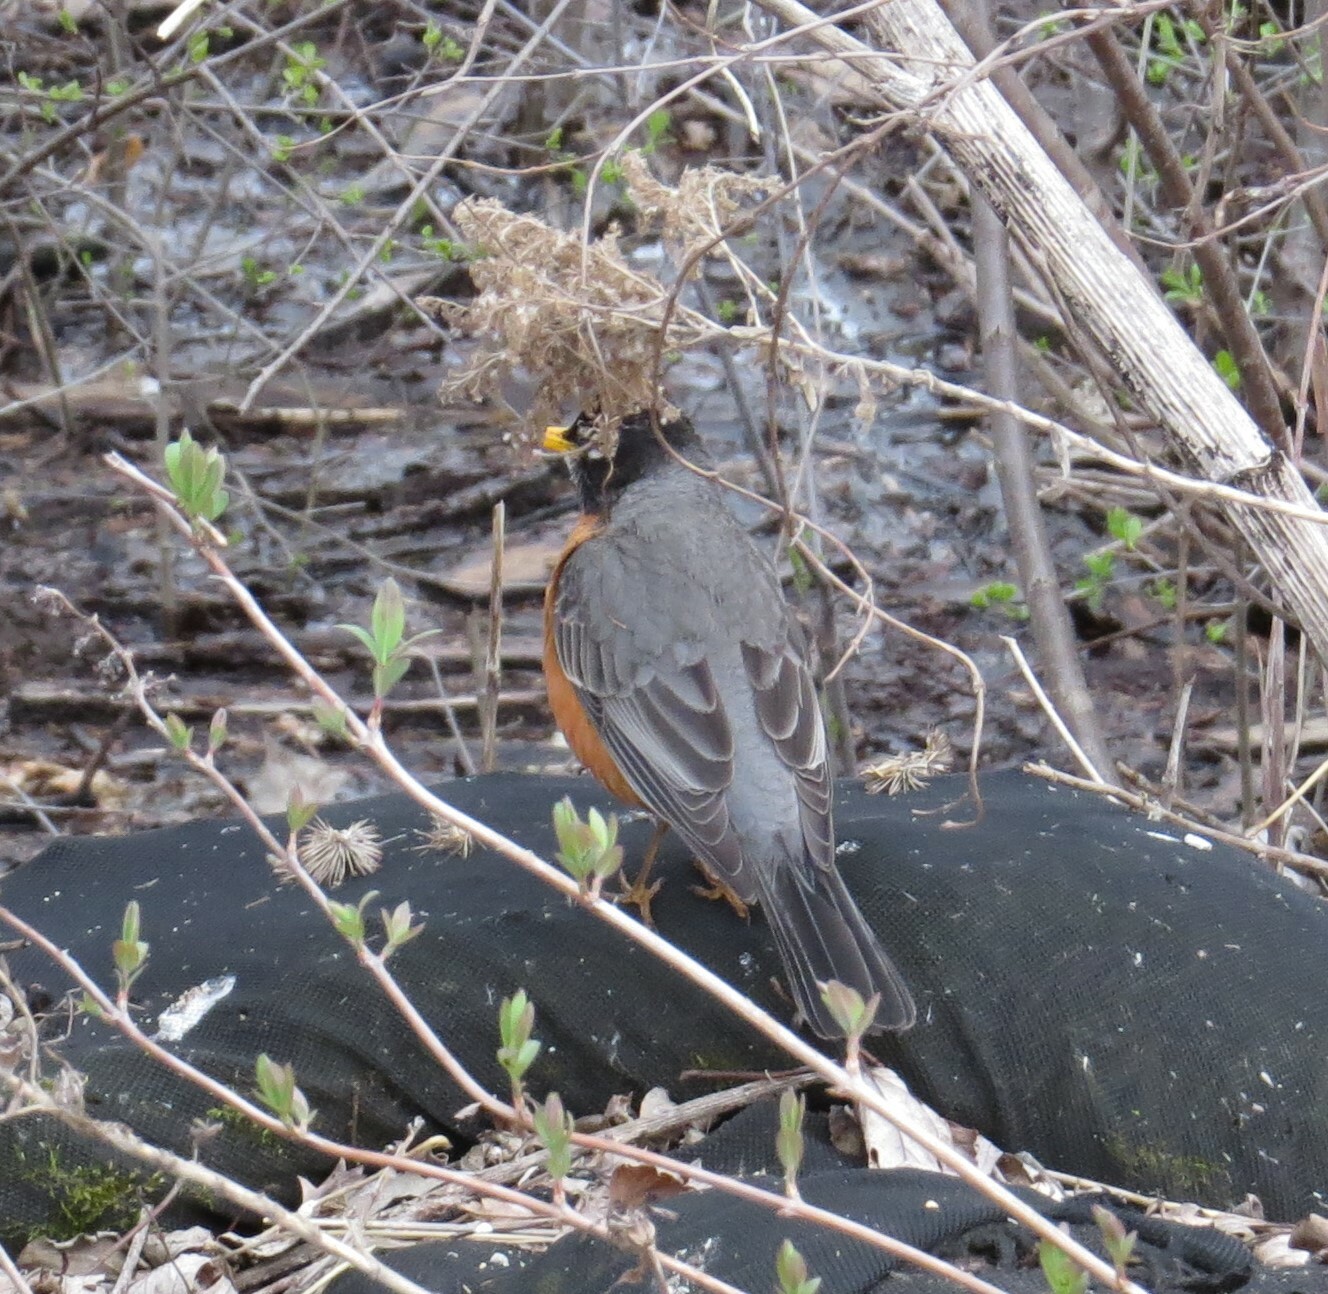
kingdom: Animalia
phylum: Chordata
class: Aves
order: Passeriformes
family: Turdidae
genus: Turdus
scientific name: Turdus migratorius
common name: American robin
